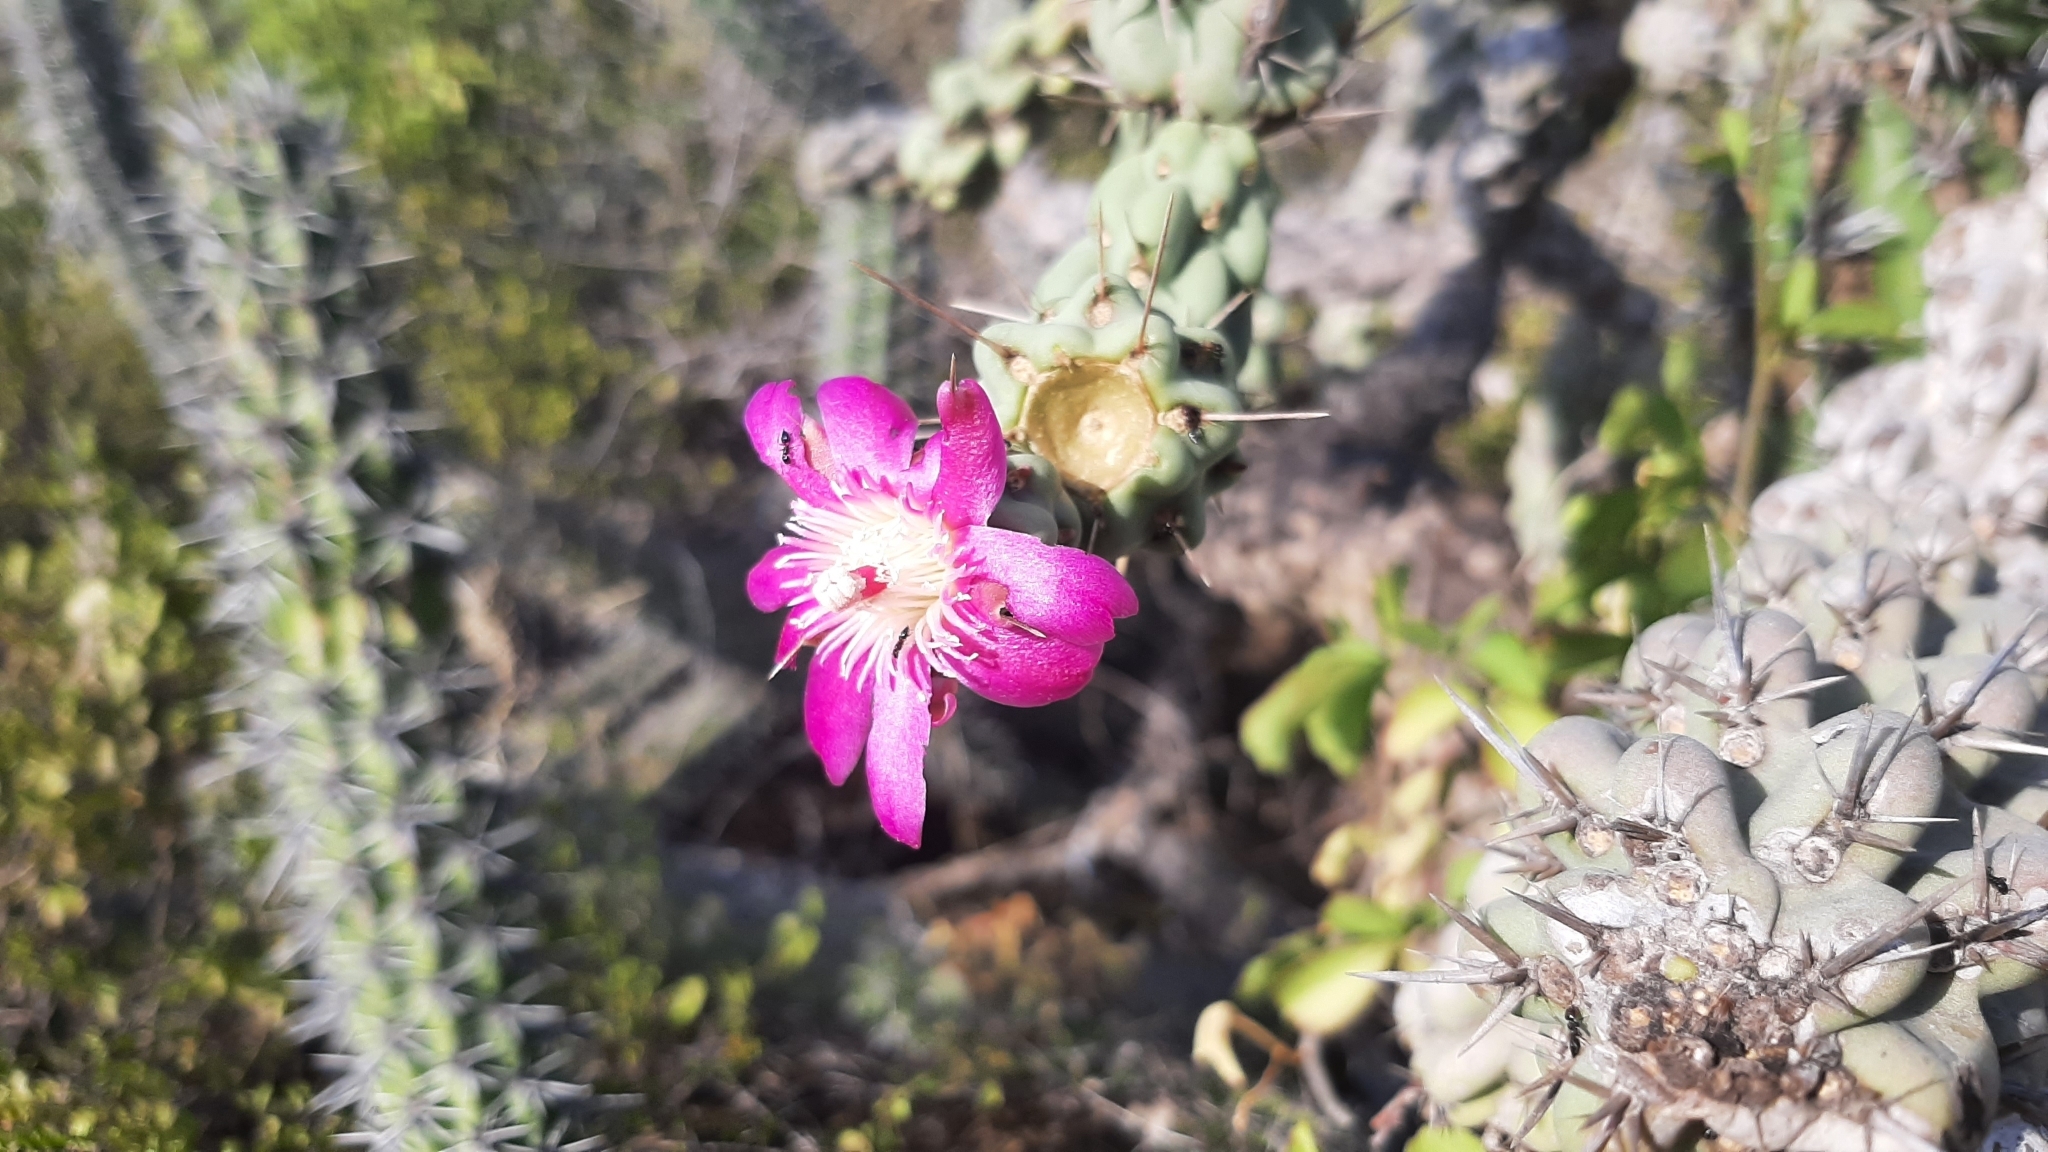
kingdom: Plantae
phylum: Tracheophyta
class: Magnoliopsida
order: Caryophyllales
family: Cactaceae
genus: Cylindropuntia
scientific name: Cylindropuntia cholla
